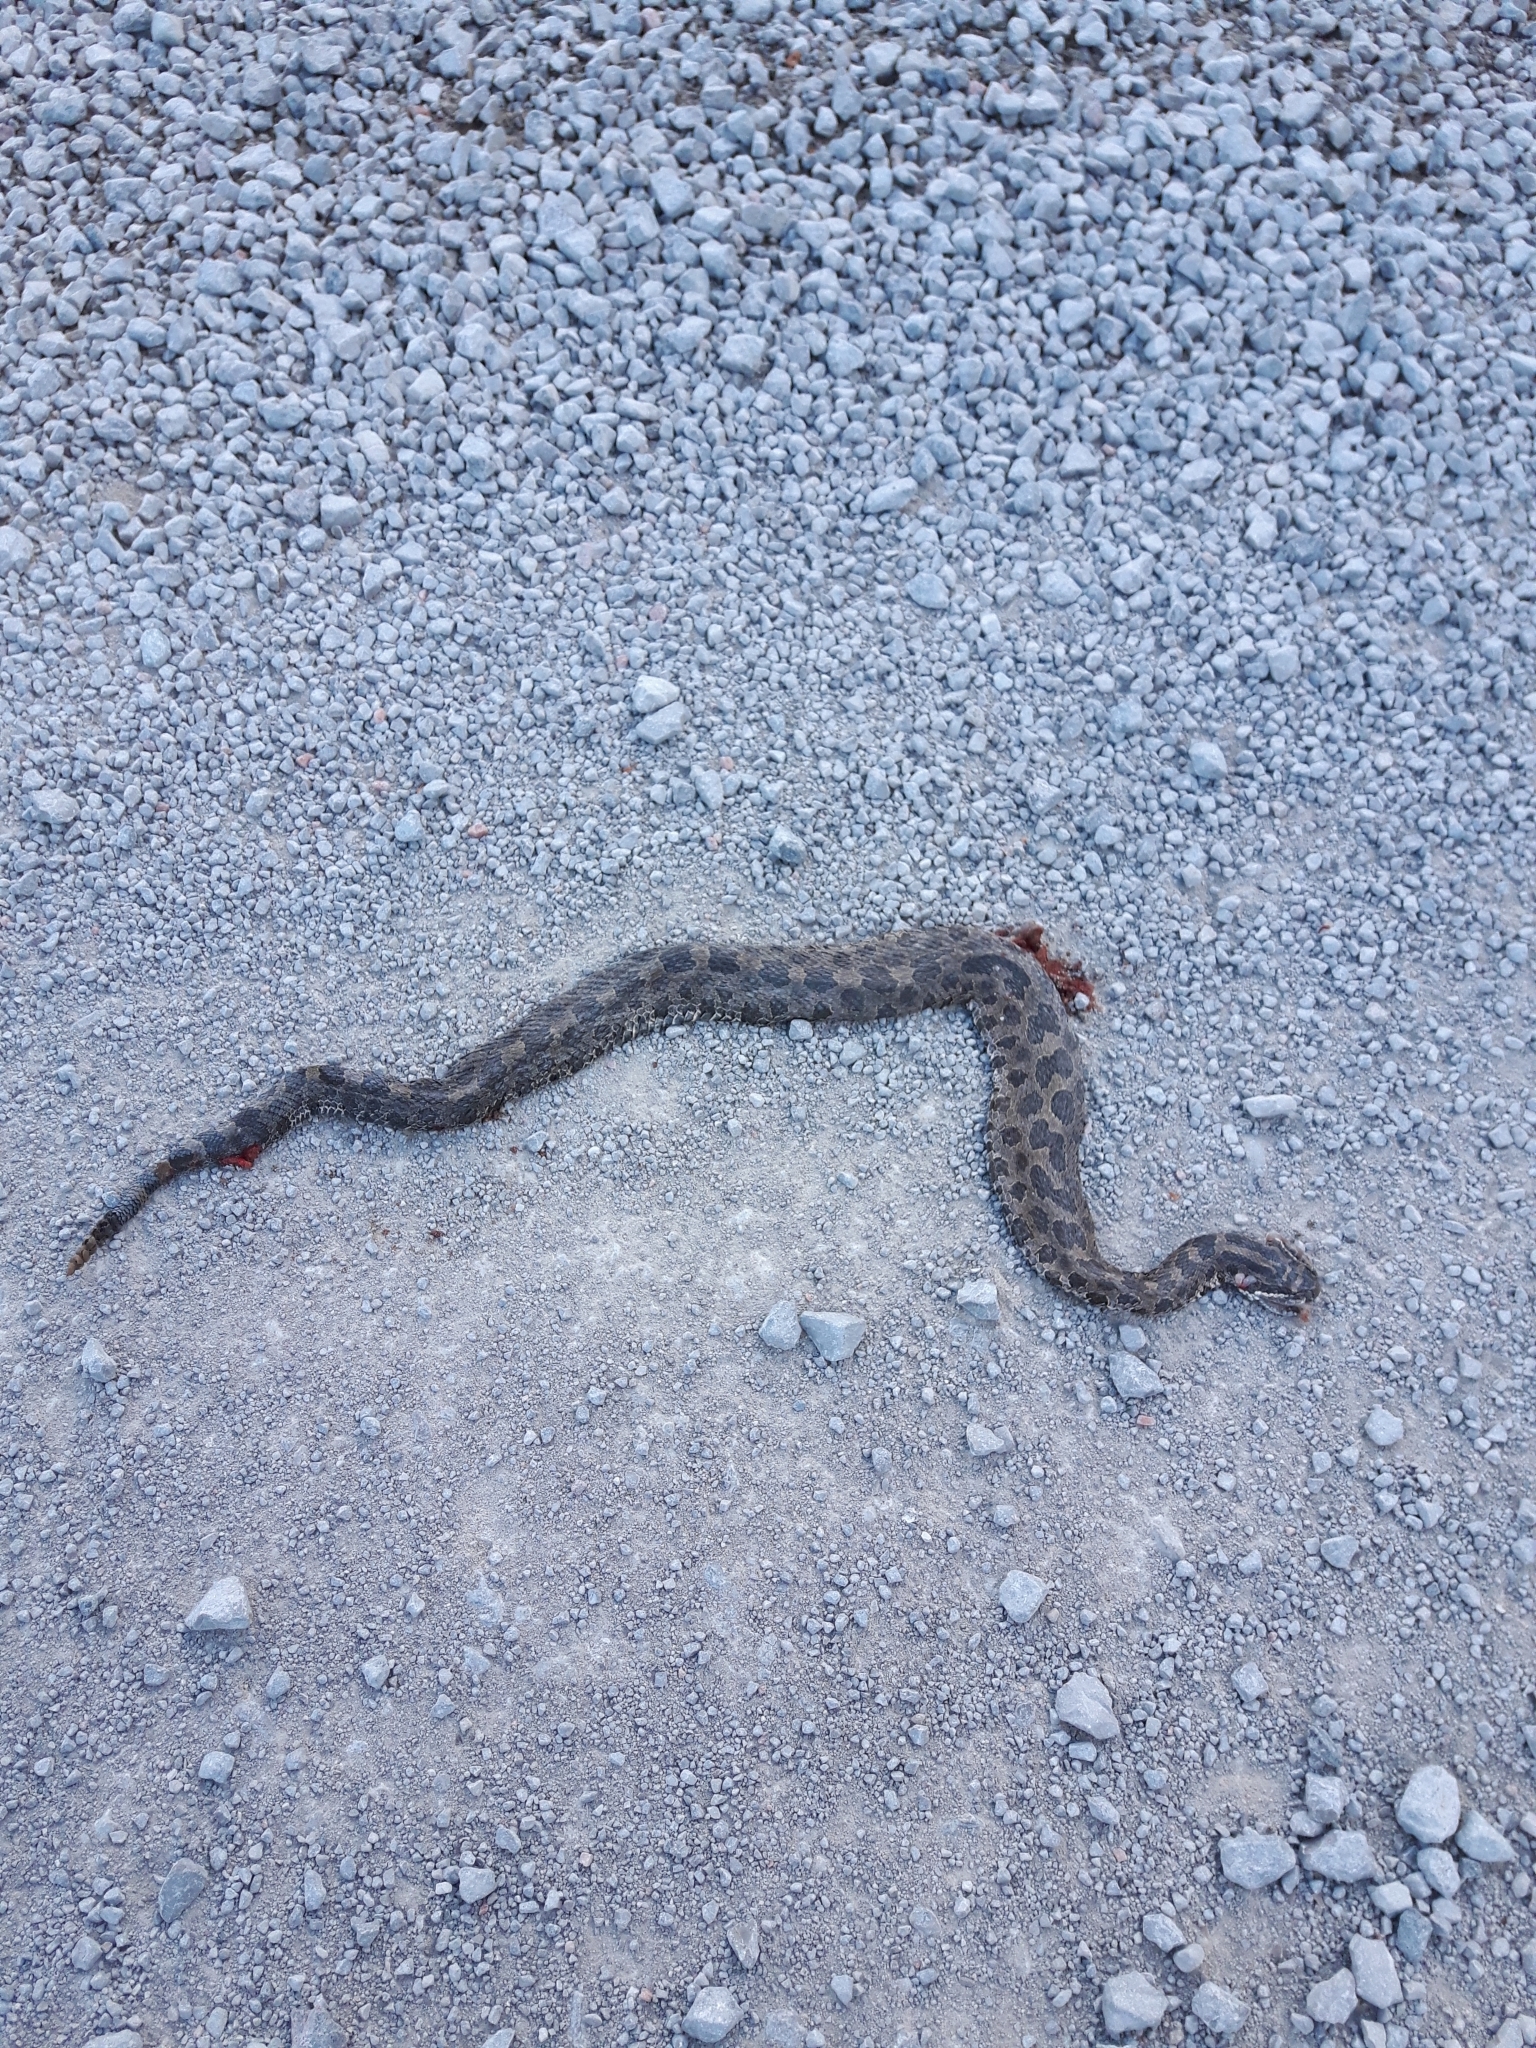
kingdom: Animalia
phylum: Chordata
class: Squamata
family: Viperidae
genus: Sistrurus
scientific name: Sistrurus catenatus
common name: Massasauga
